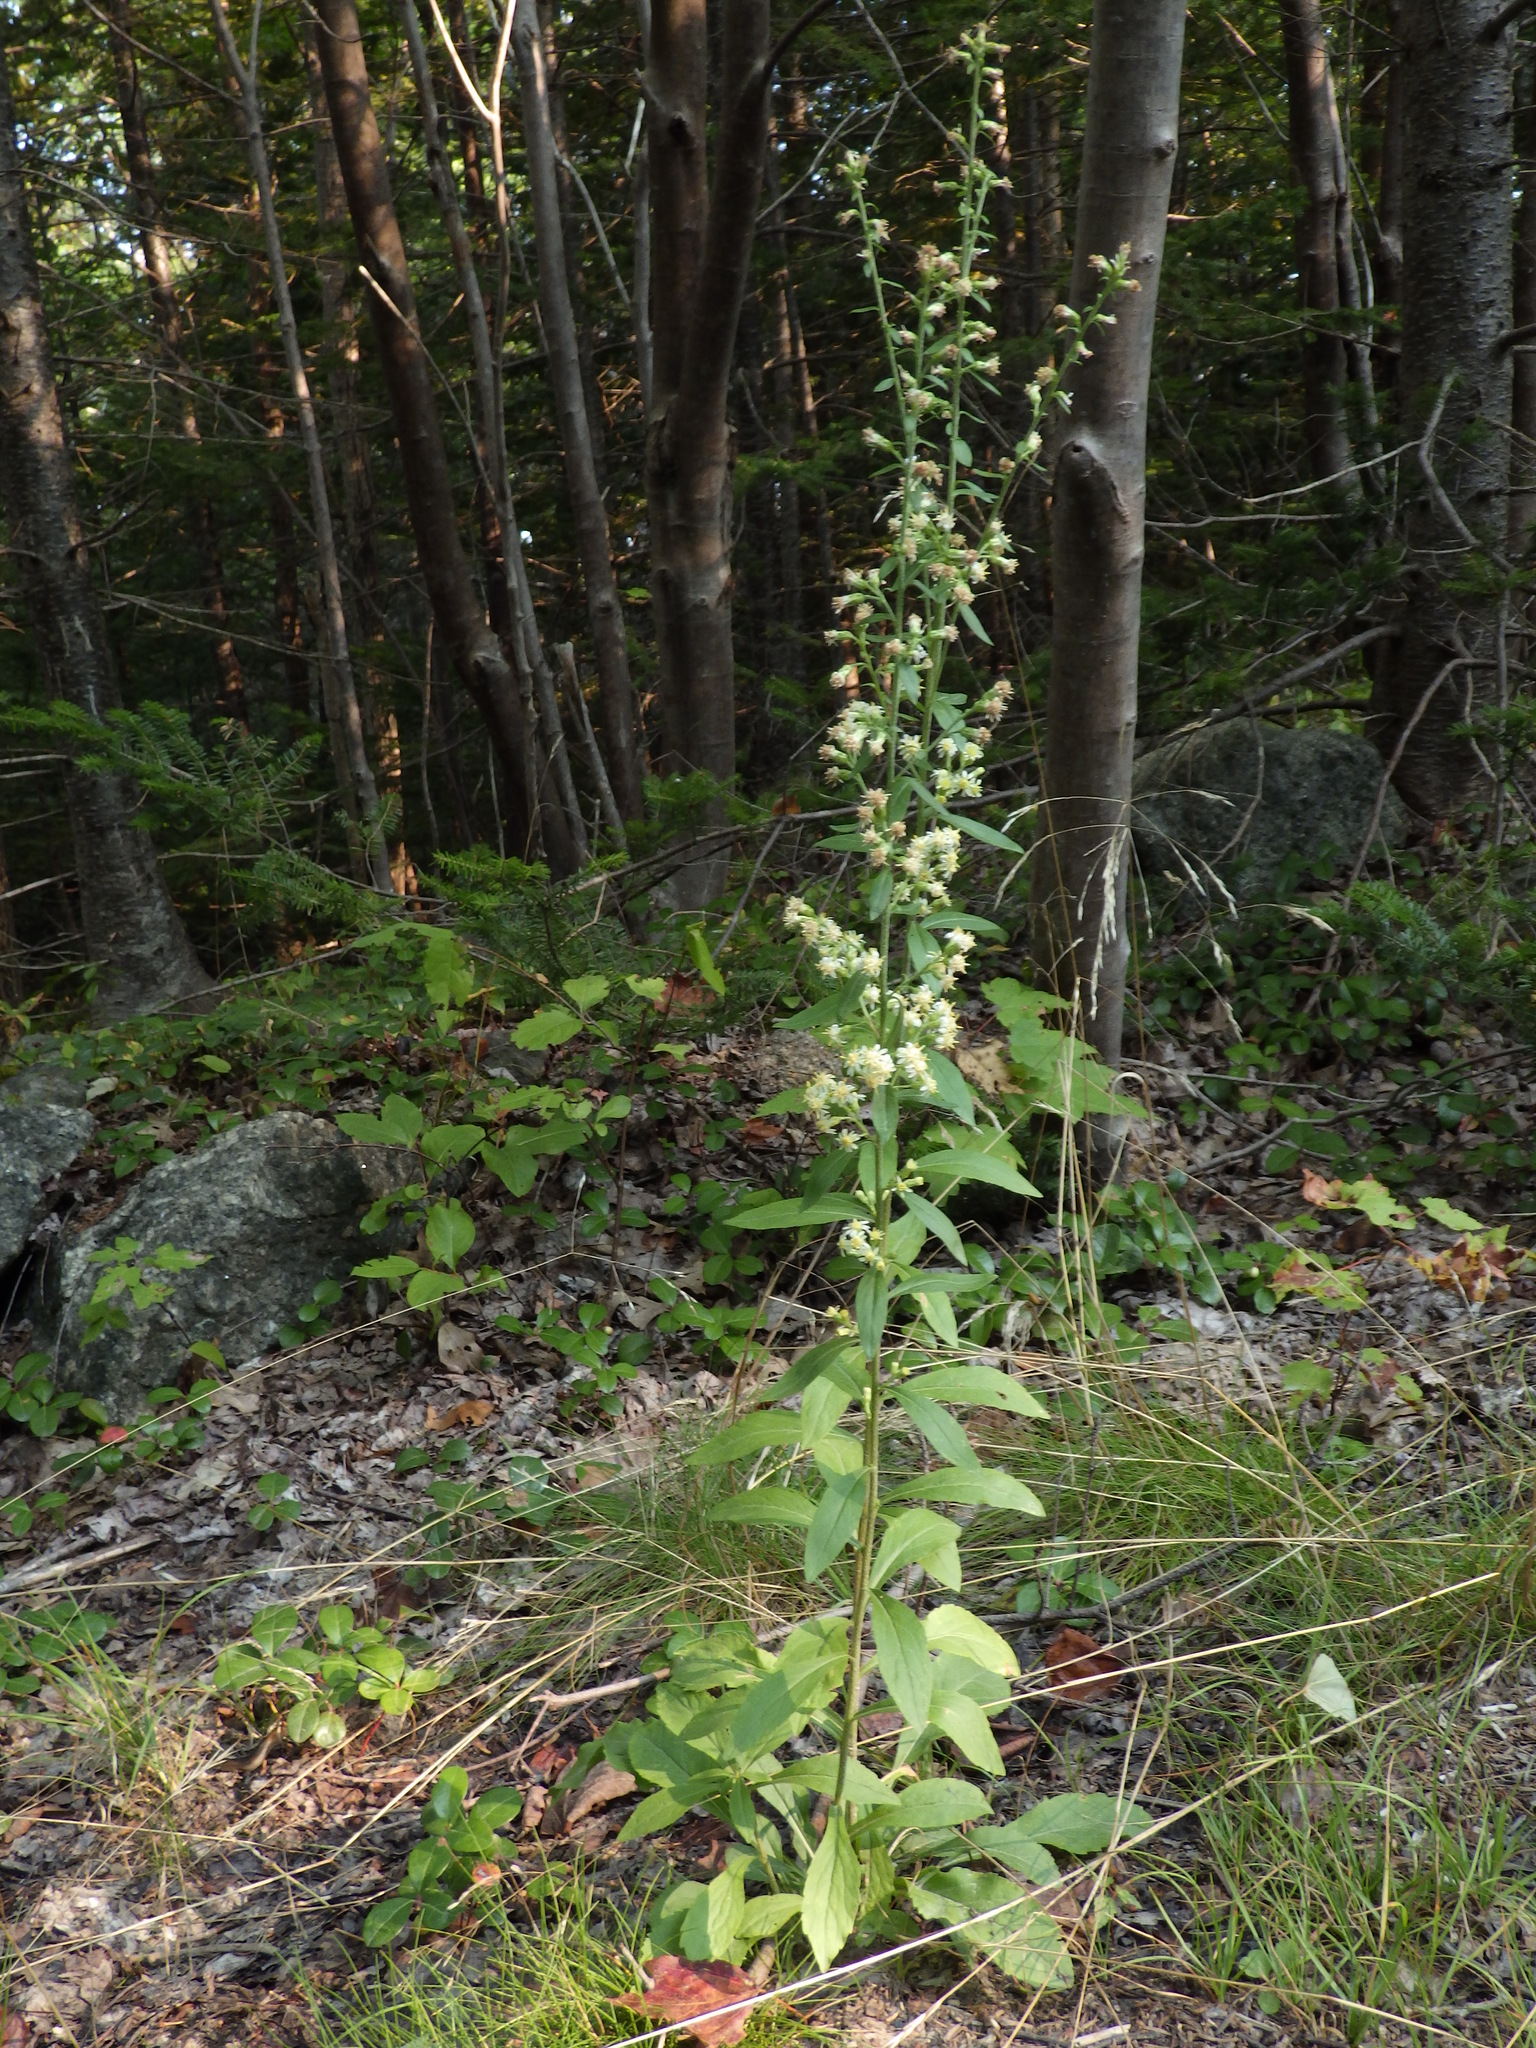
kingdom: Plantae
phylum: Tracheophyta
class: Magnoliopsida
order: Asterales
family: Asteraceae
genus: Solidago
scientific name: Solidago bicolor
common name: Silverrod
